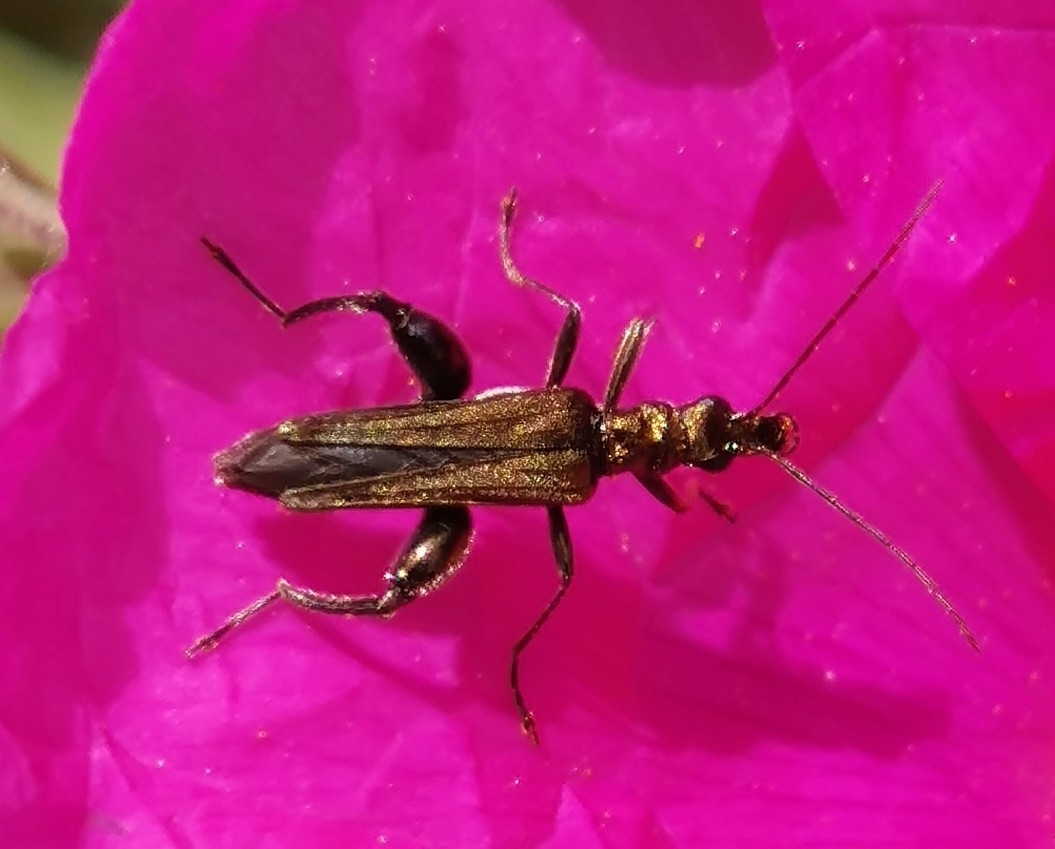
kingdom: Animalia
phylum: Arthropoda
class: Insecta
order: Coleoptera
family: Oedemeridae
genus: Oedemera
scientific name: Oedemera flavipes
